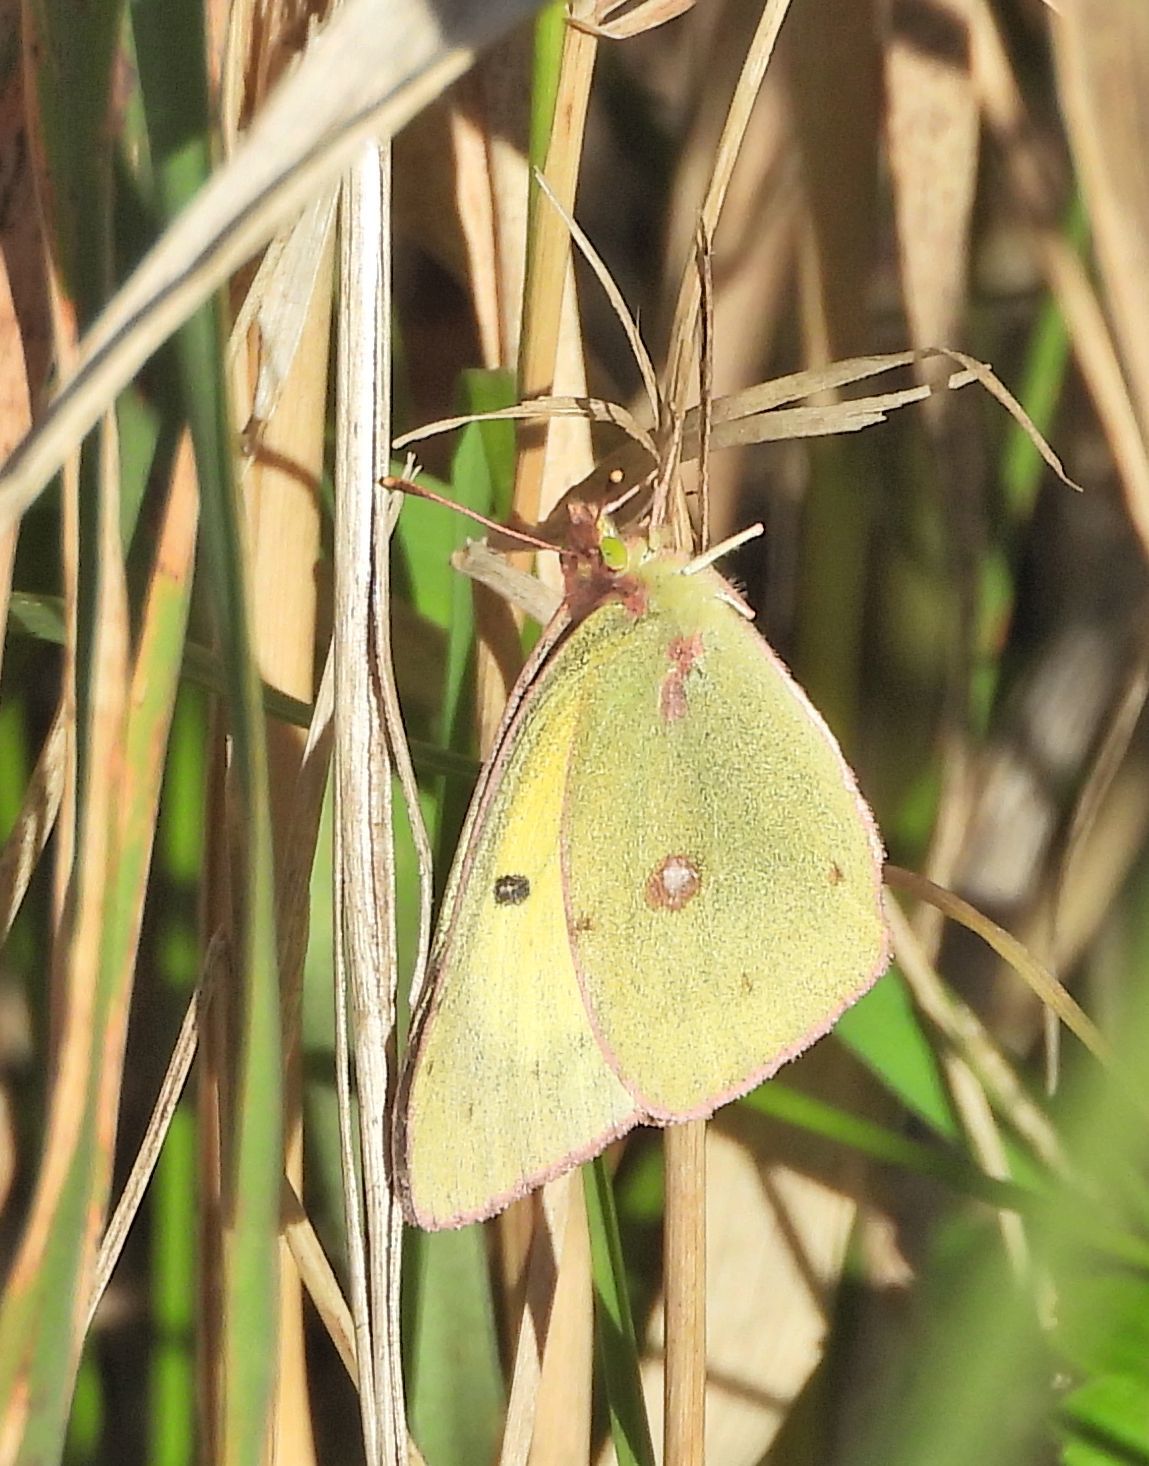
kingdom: Animalia
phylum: Arthropoda
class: Insecta
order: Lepidoptera
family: Pieridae
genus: Colias
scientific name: Colias philodice
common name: Clouded sulphur
